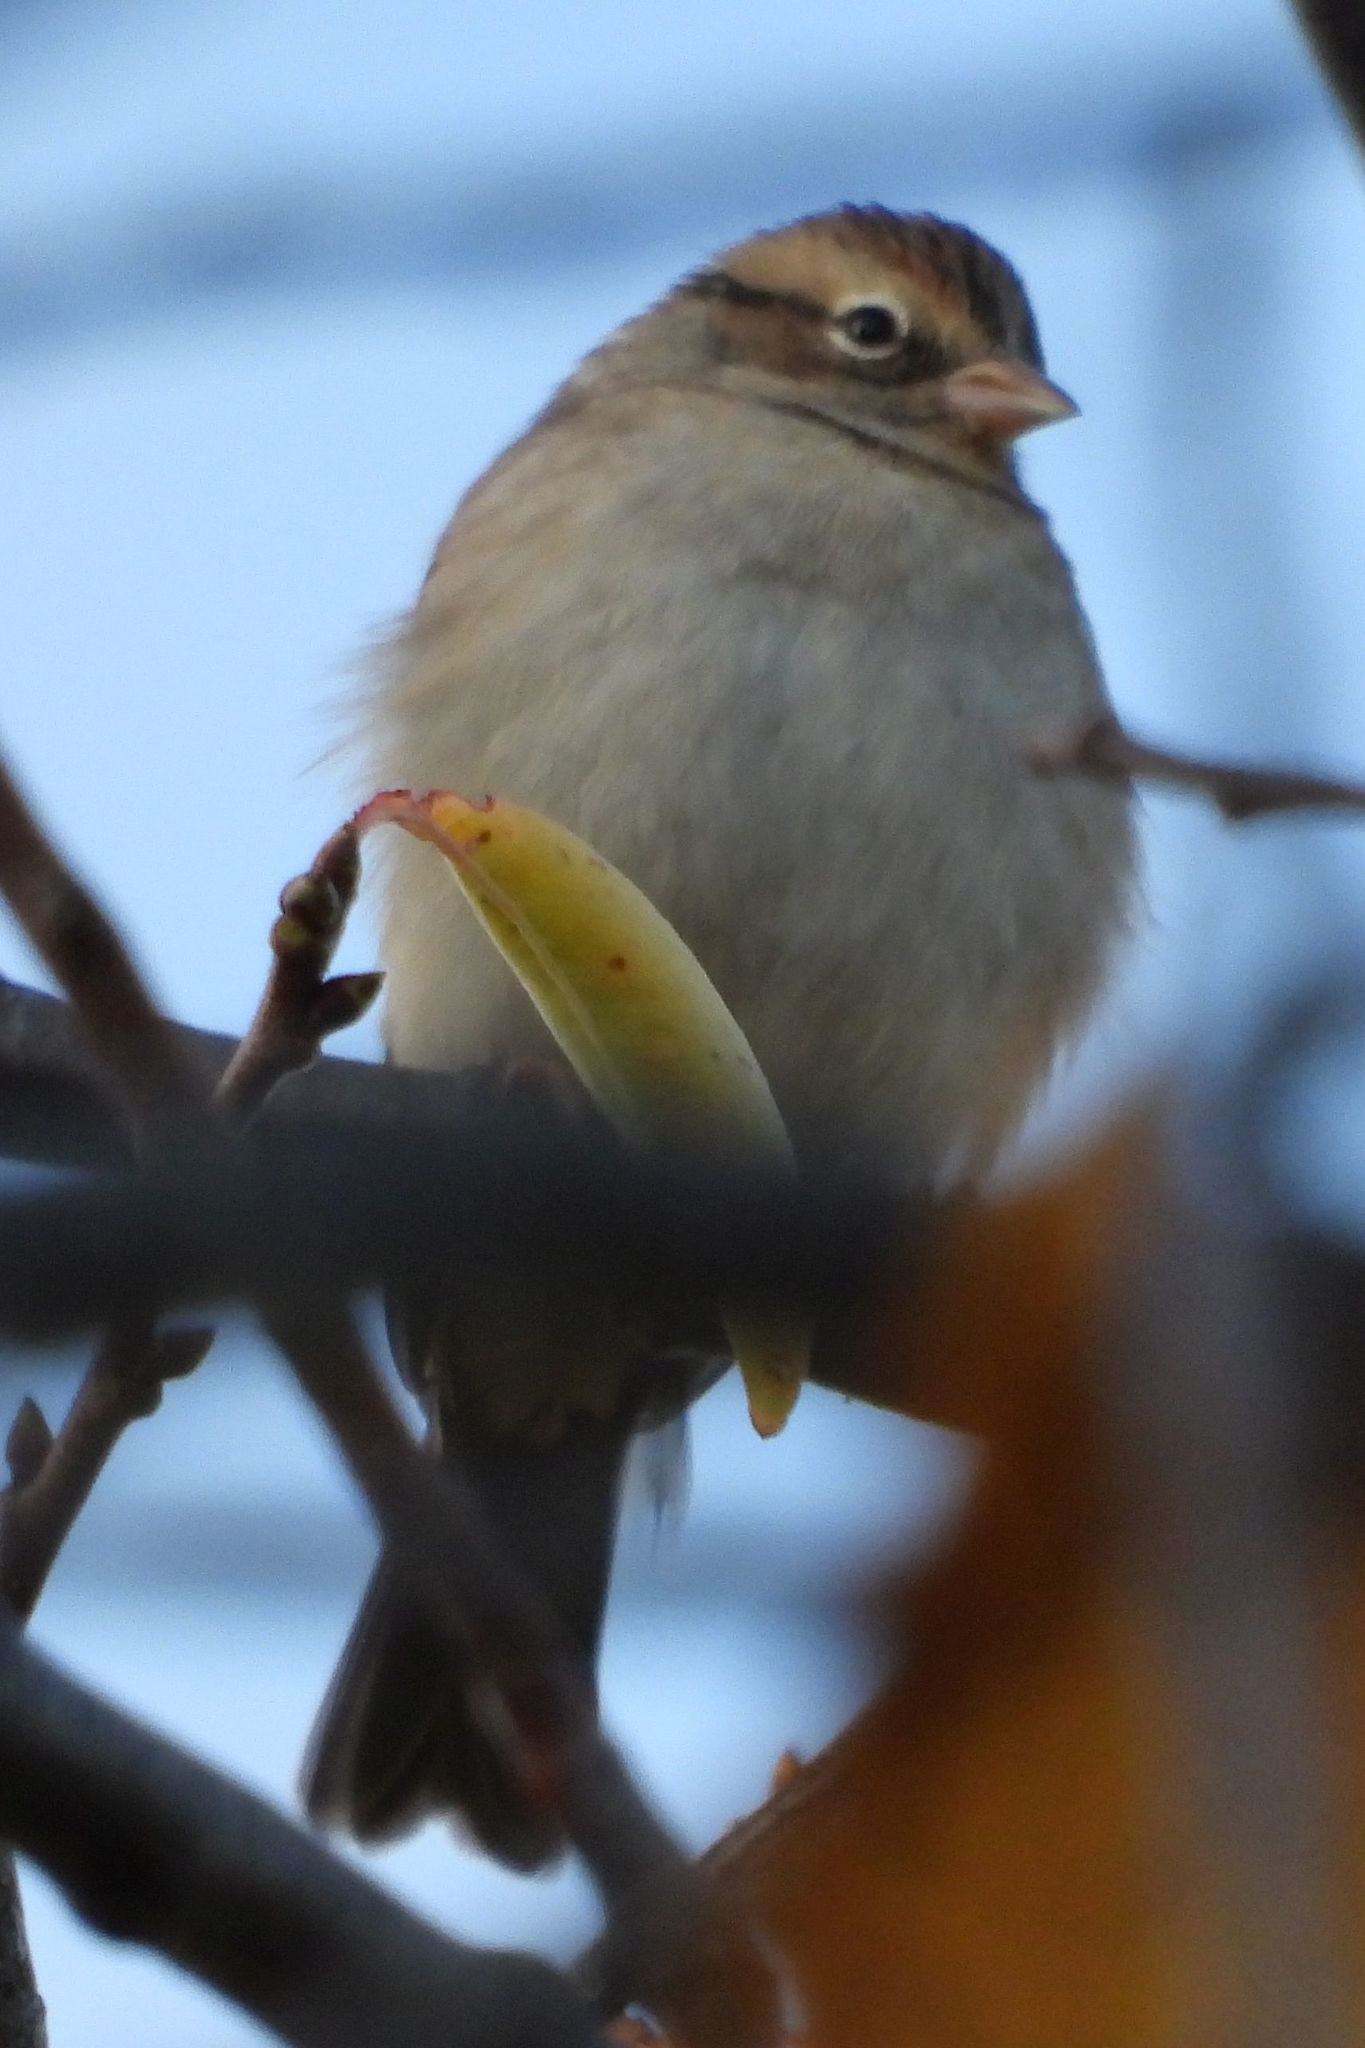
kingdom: Animalia
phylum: Chordata
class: Aves
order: Passeriformes
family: Passerellidae
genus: Spizella
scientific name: Spizella passerina
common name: Chipping sparrow
